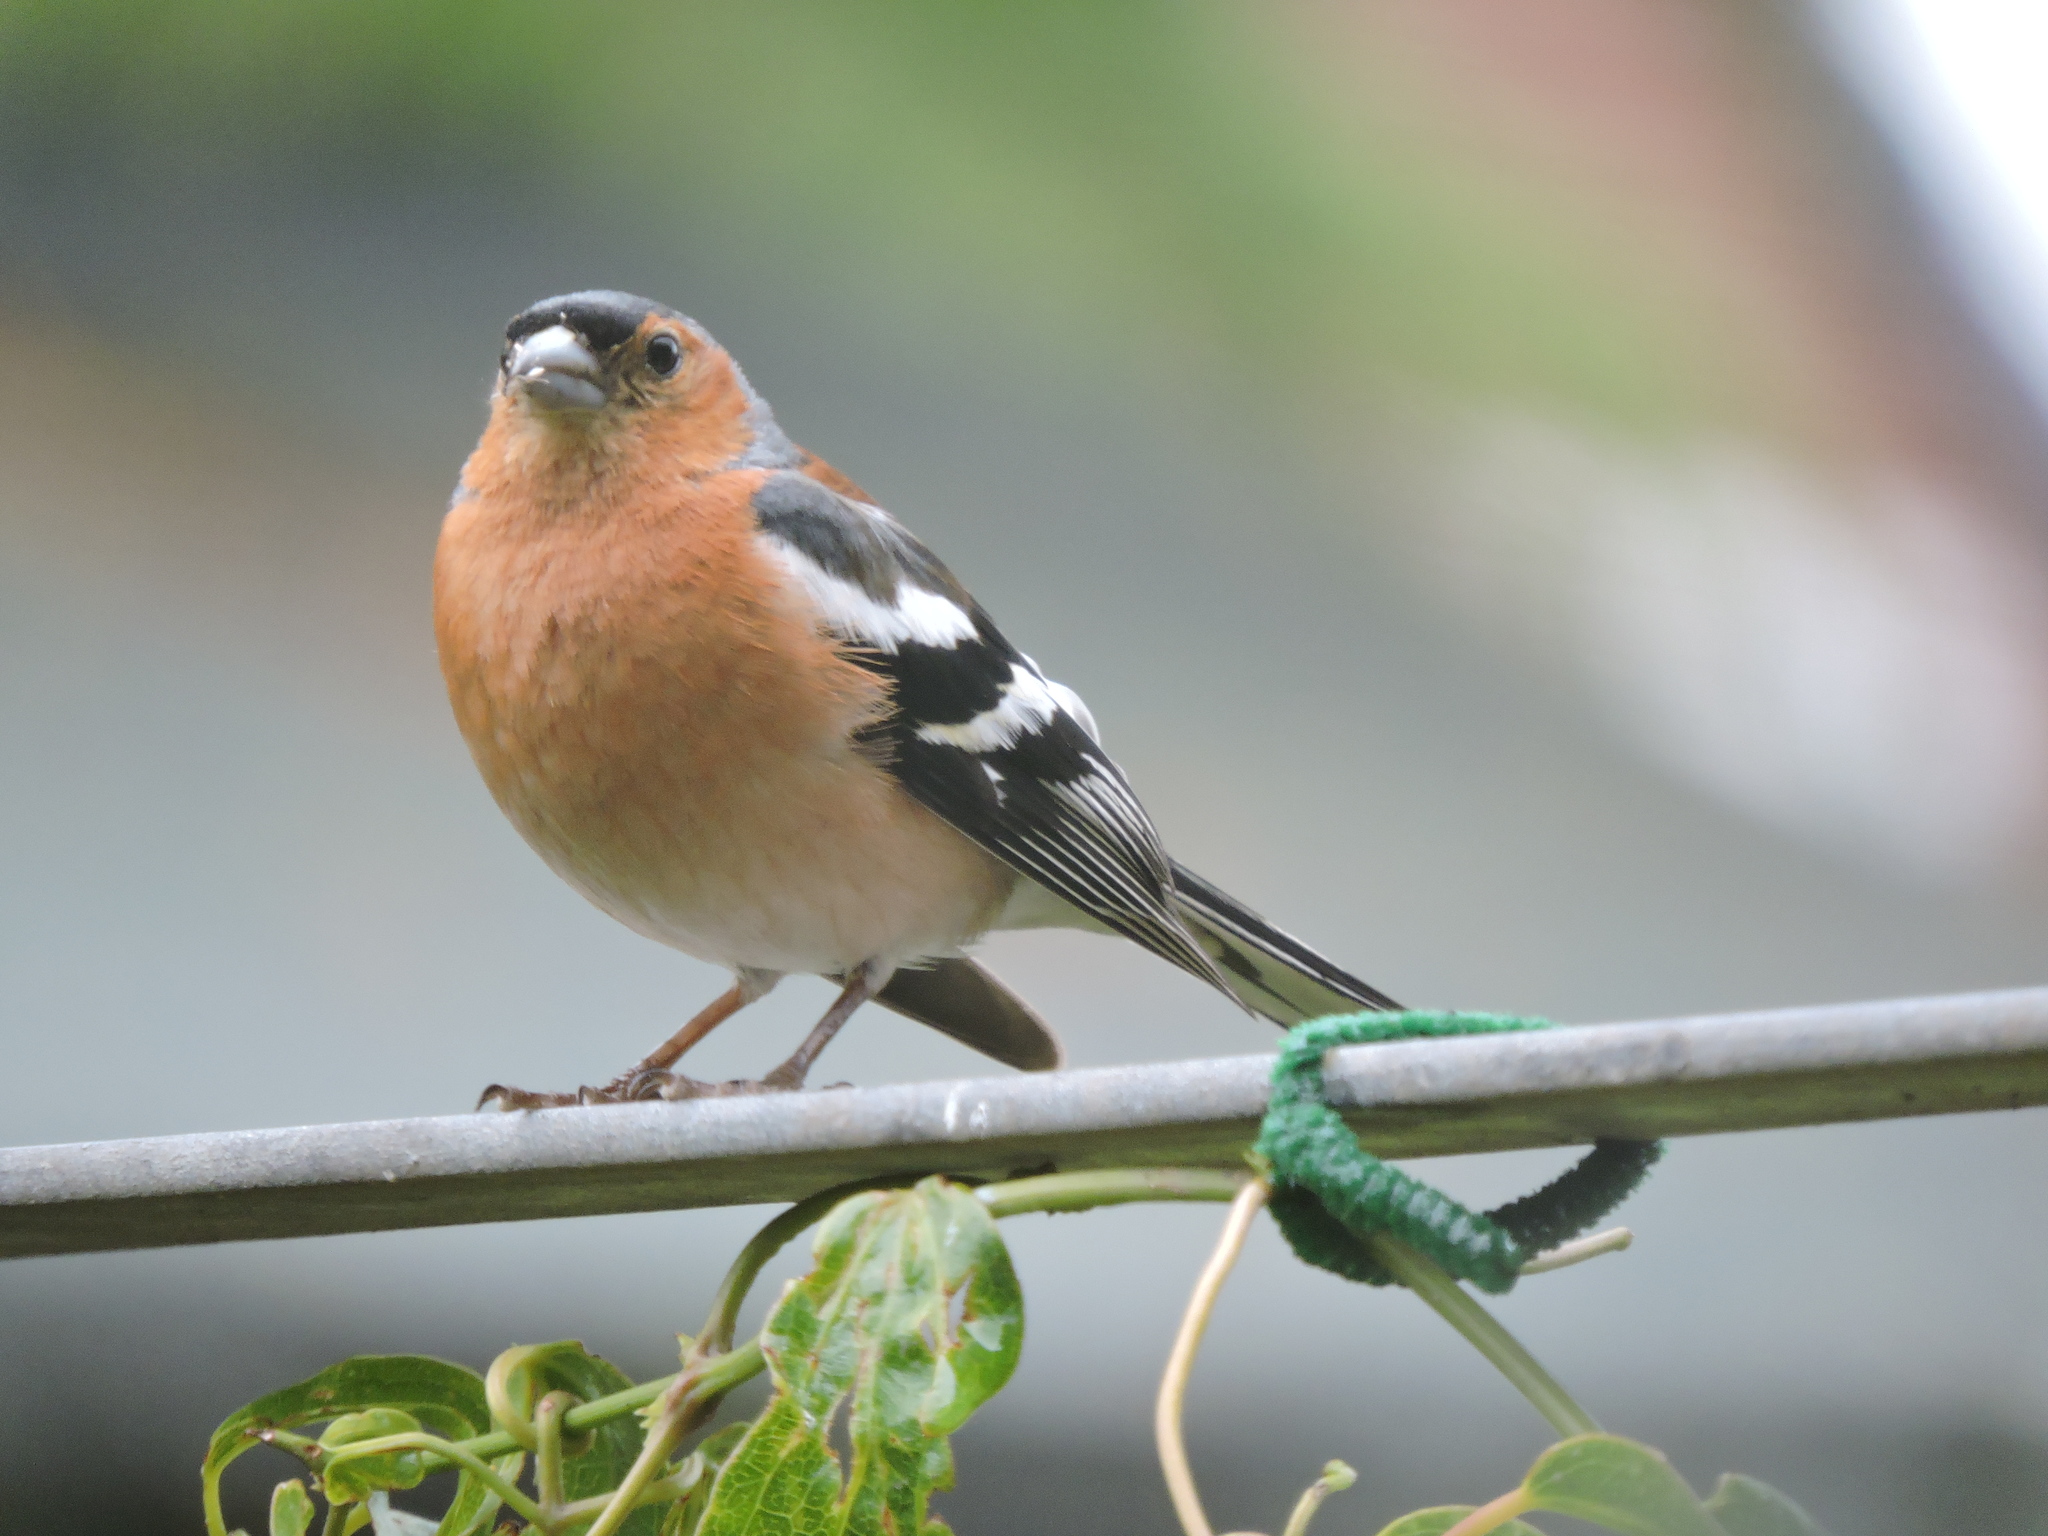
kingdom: Animalia
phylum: Chordata
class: Aves
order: Passeriformes
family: Fringillidae
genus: Fringilla
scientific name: Fringilla coelebs
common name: Common chaffinch
